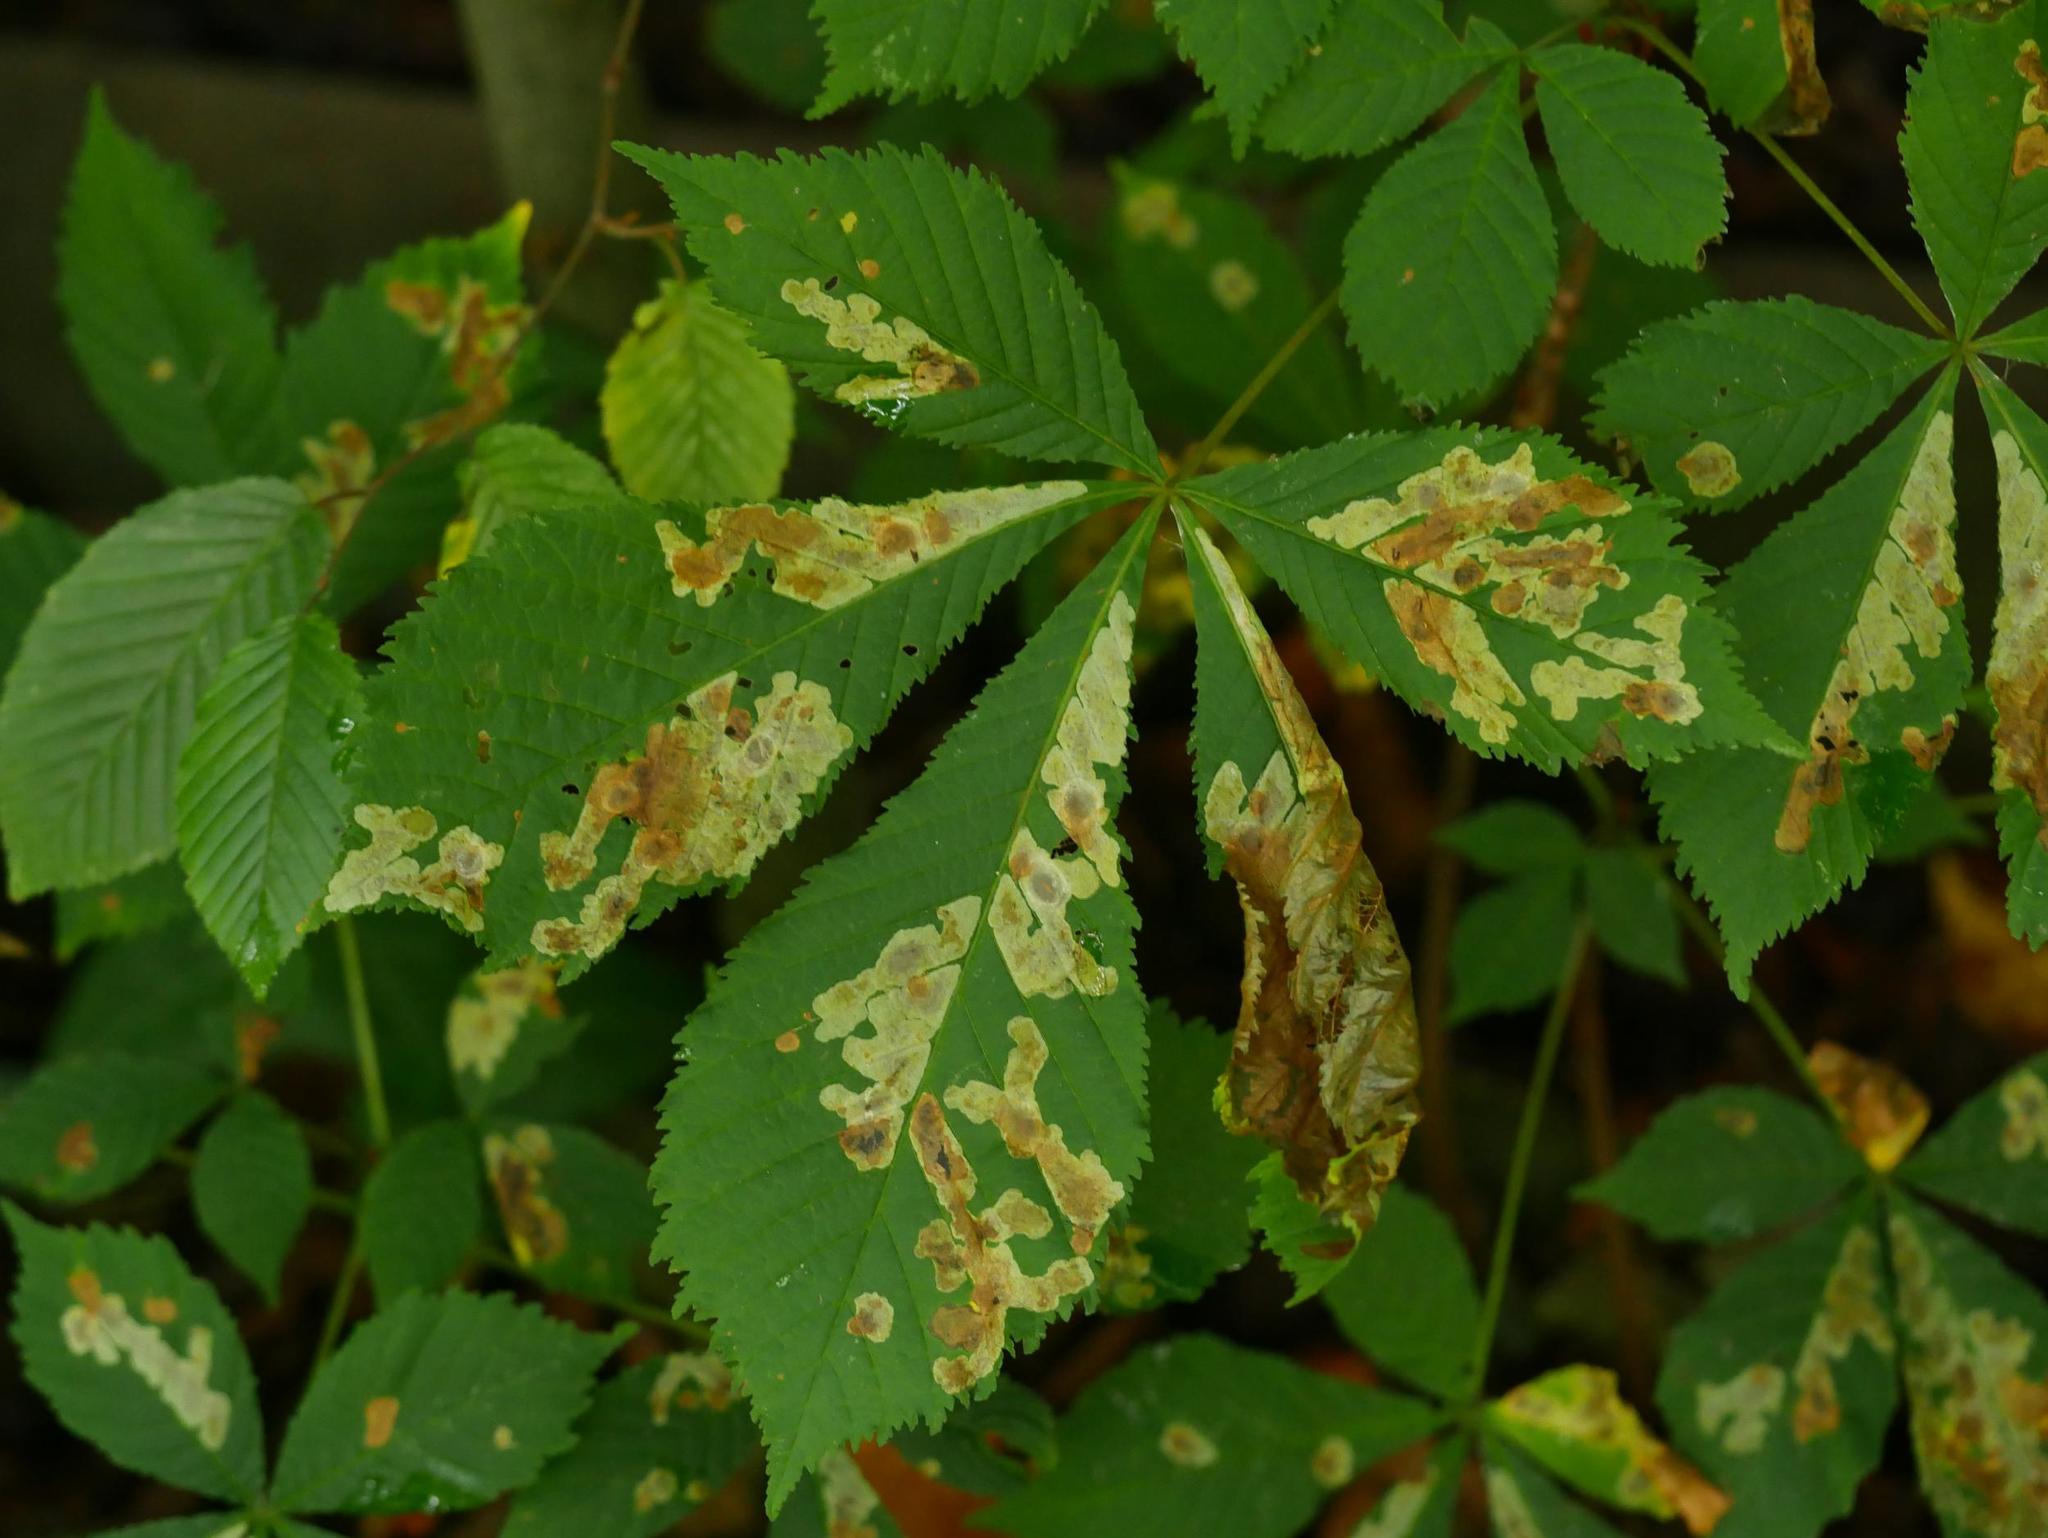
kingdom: Animalia
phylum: Arthropoda
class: Insecta
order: Lepidoptera
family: Gracillariidae
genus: Cameraria
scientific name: Cameraria ohridella
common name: Horse-chestnut leaf-miner
